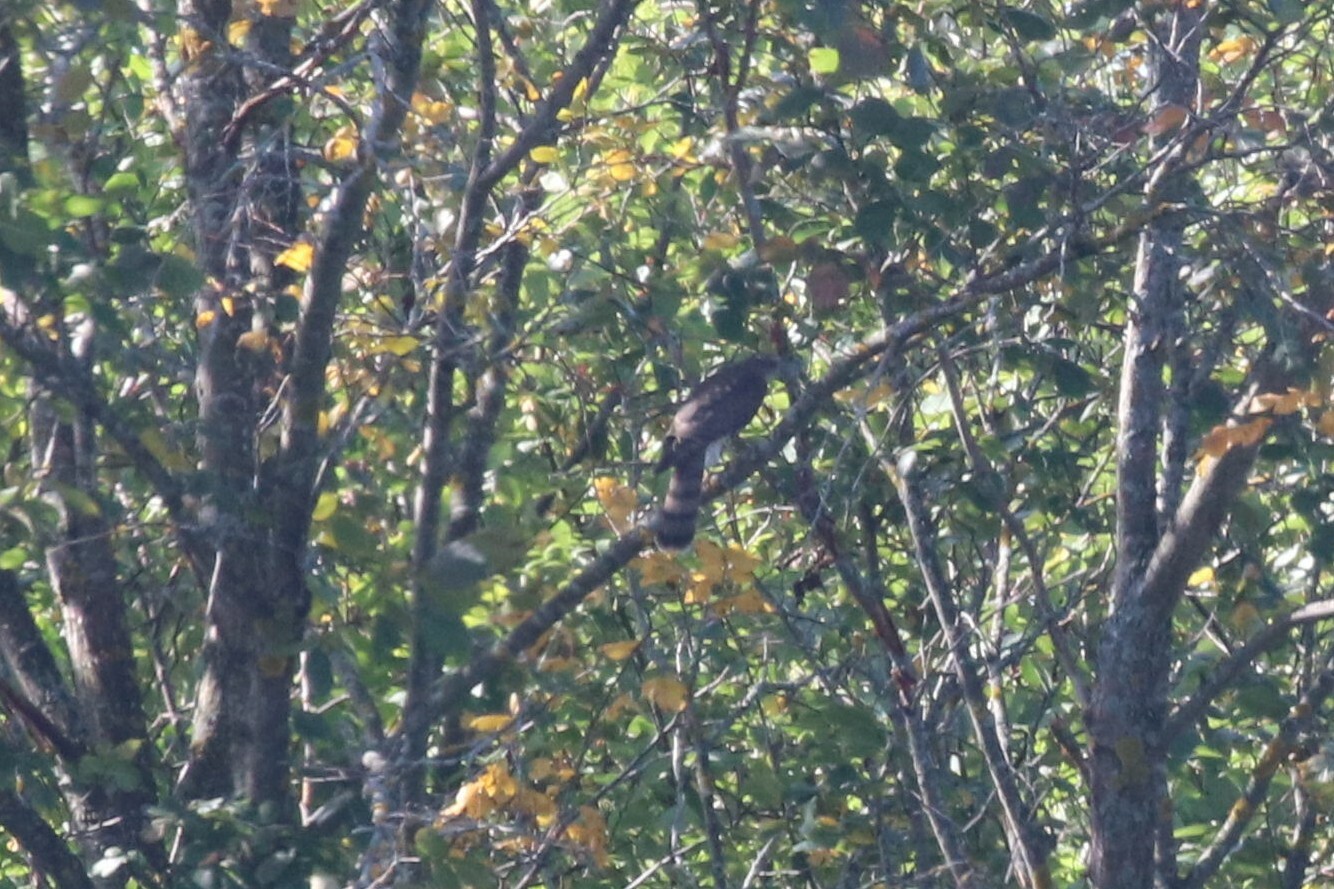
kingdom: Animalia
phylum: Chordata
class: Aves
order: Accipitriformes
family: Accipitridae
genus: Accipiter
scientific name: Accipiter nisus
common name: Eurasian sparrowhawk
